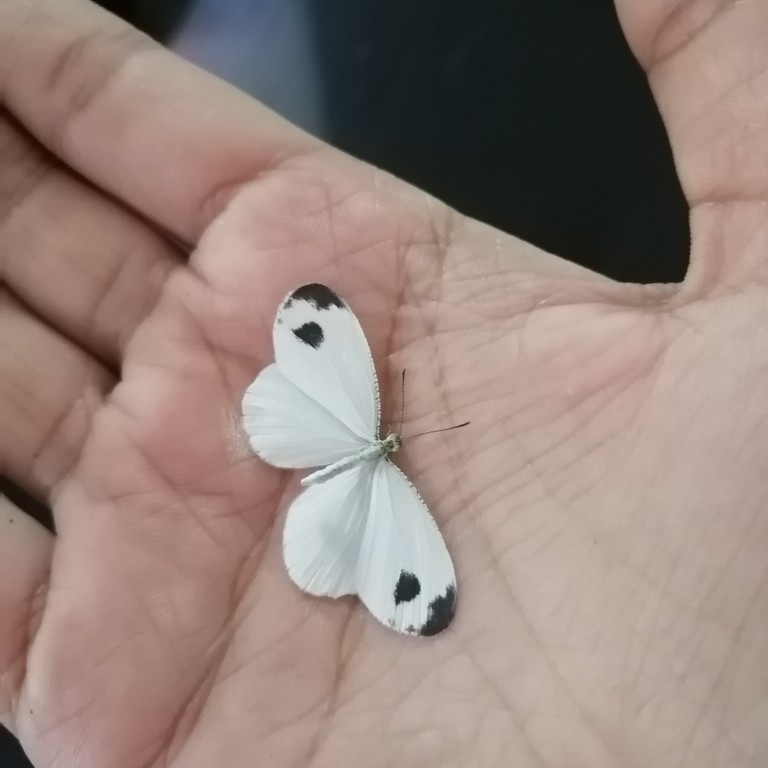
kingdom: Animalia
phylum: Arthropoda
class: Insecta
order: Lepidoptera
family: Pieridae
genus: Leptosia
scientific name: Leptosia nina
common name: Psyche
